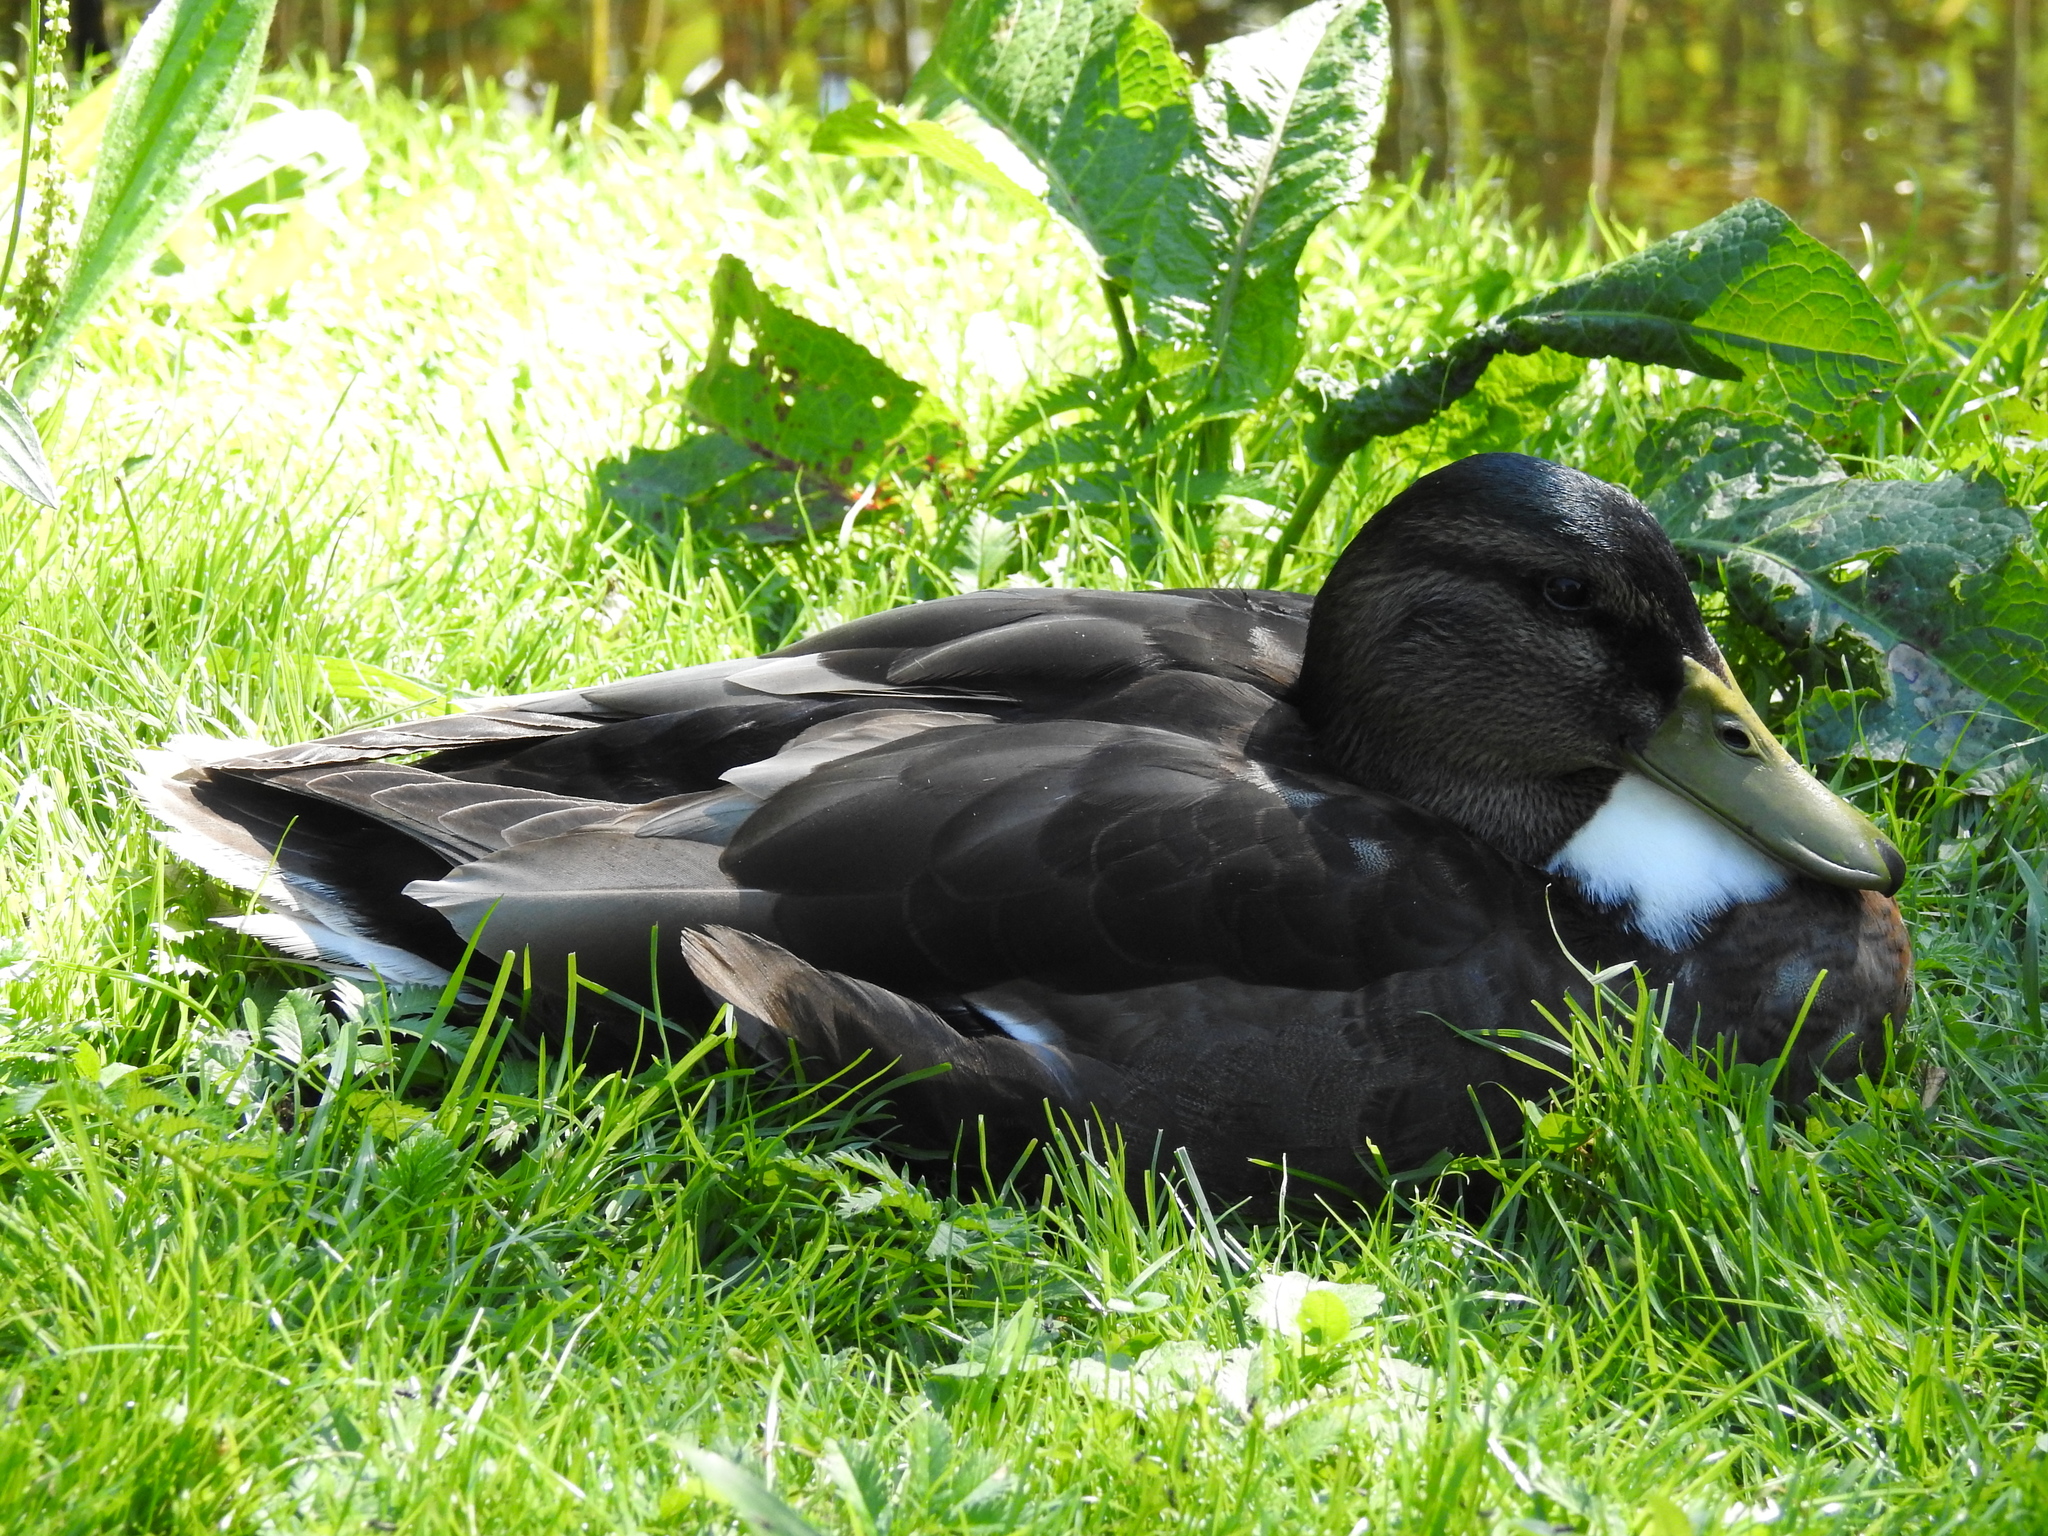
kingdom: Animalia
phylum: Chordata
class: Aves
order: Anseriformes
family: Anatidae
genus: Anas
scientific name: Anas platyrhynchos
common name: Mallard
